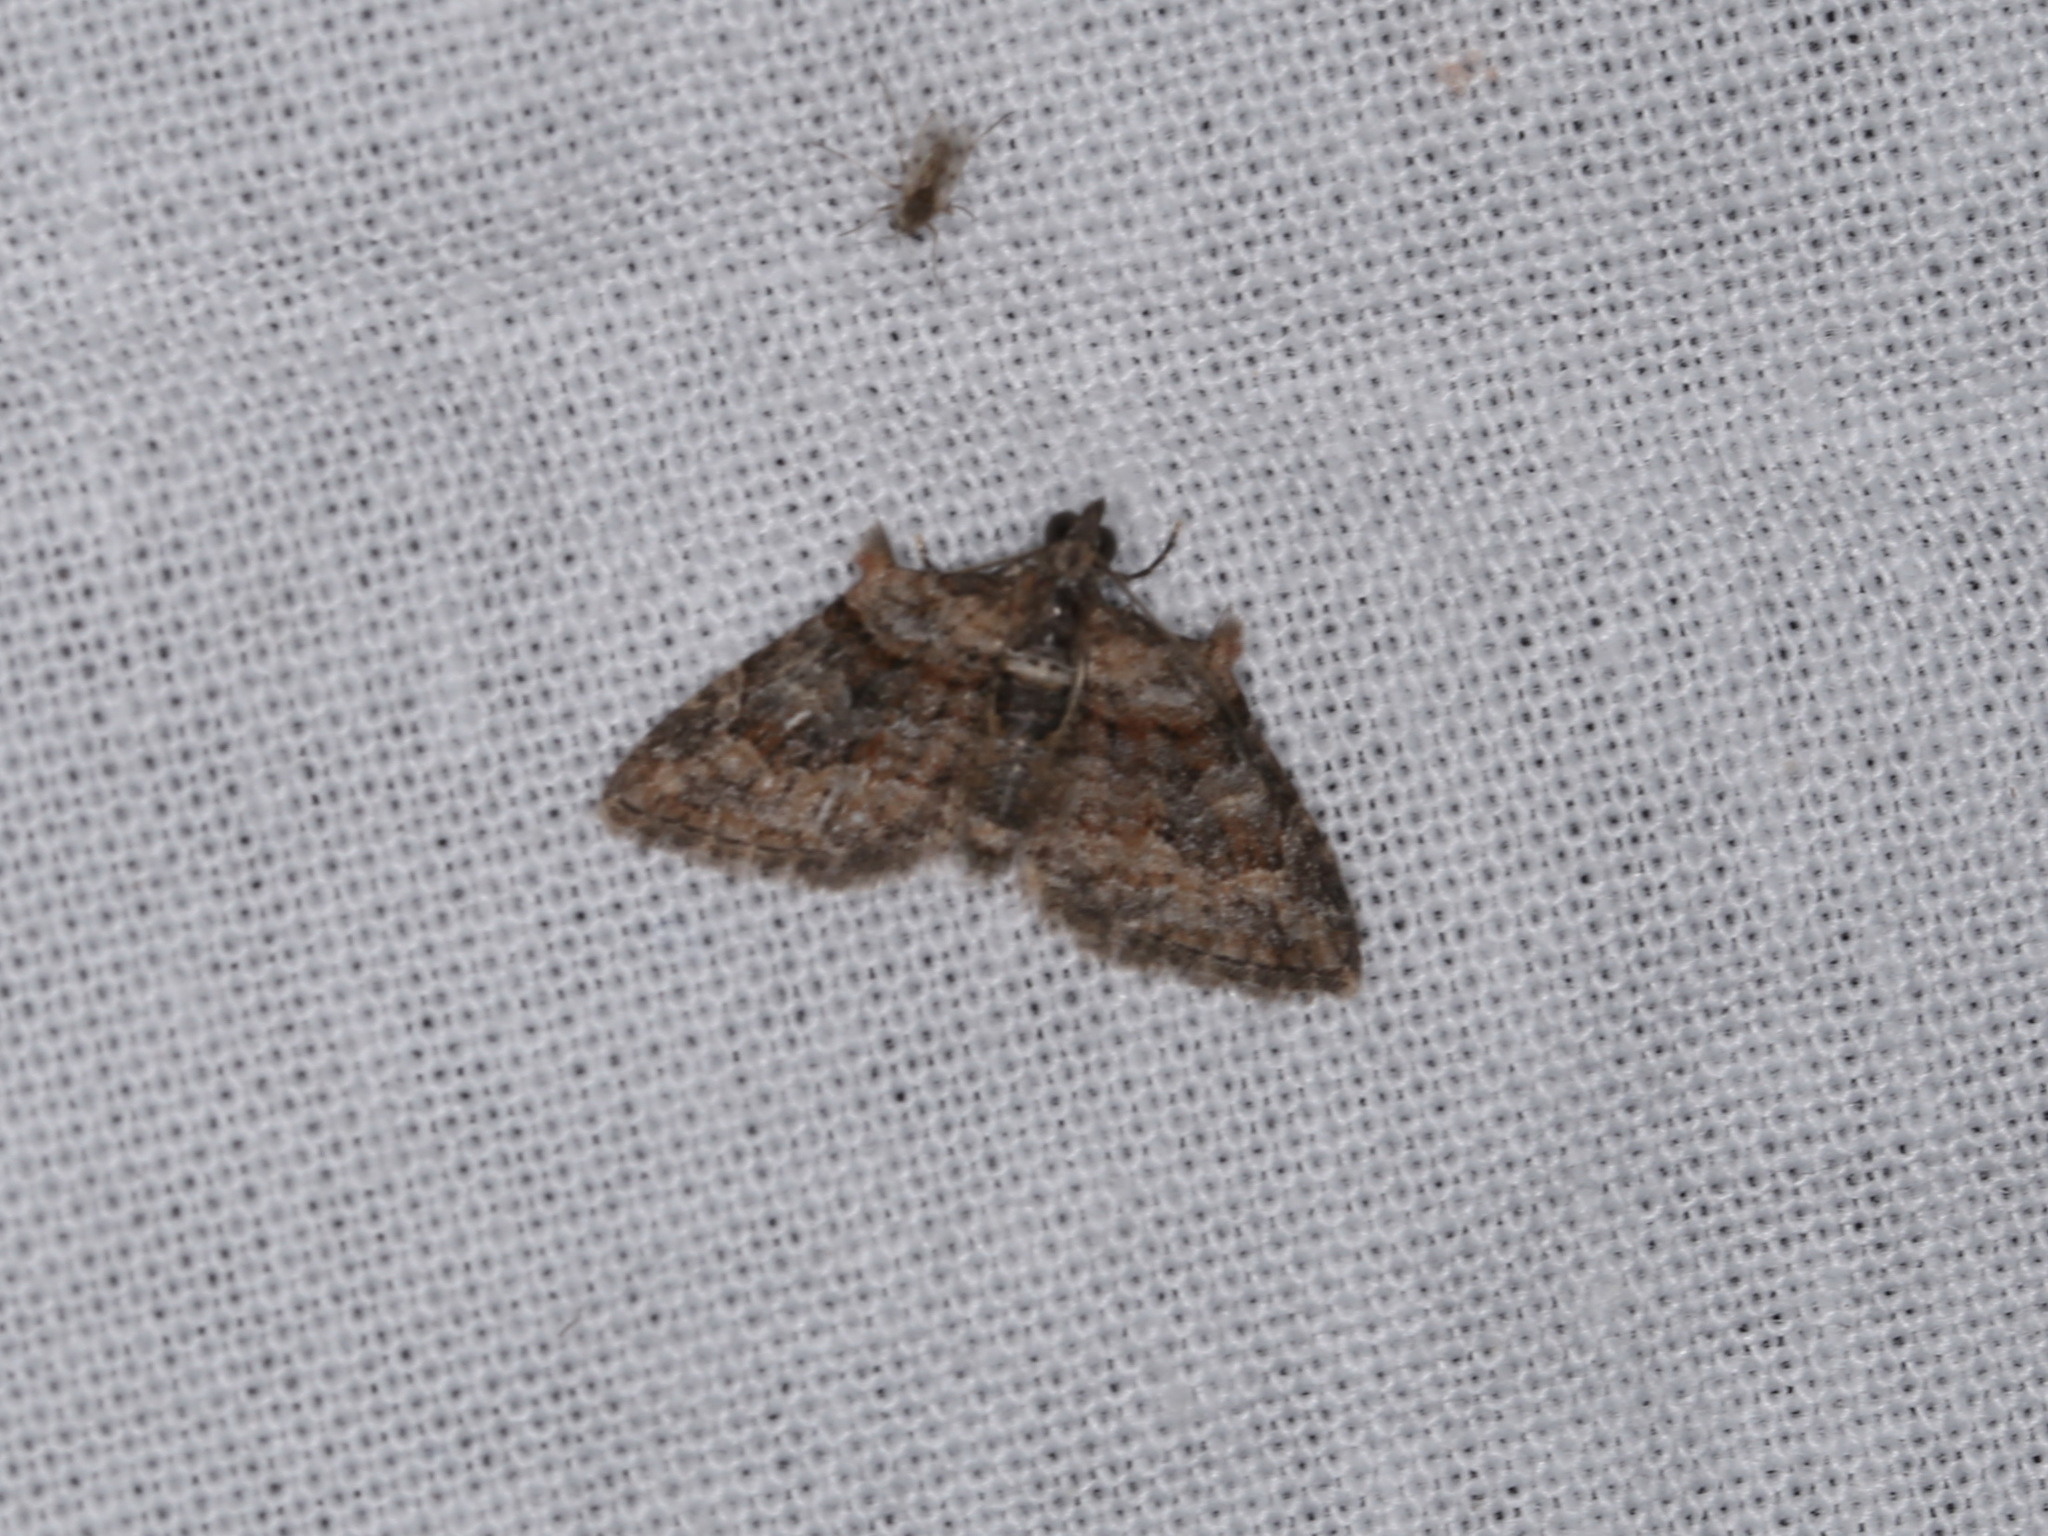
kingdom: Animalia
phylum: Arthropoda
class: Insecta
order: Lepidoptera
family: Geometridae
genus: Phrissogonus
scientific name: Phrissogonus laticostata
